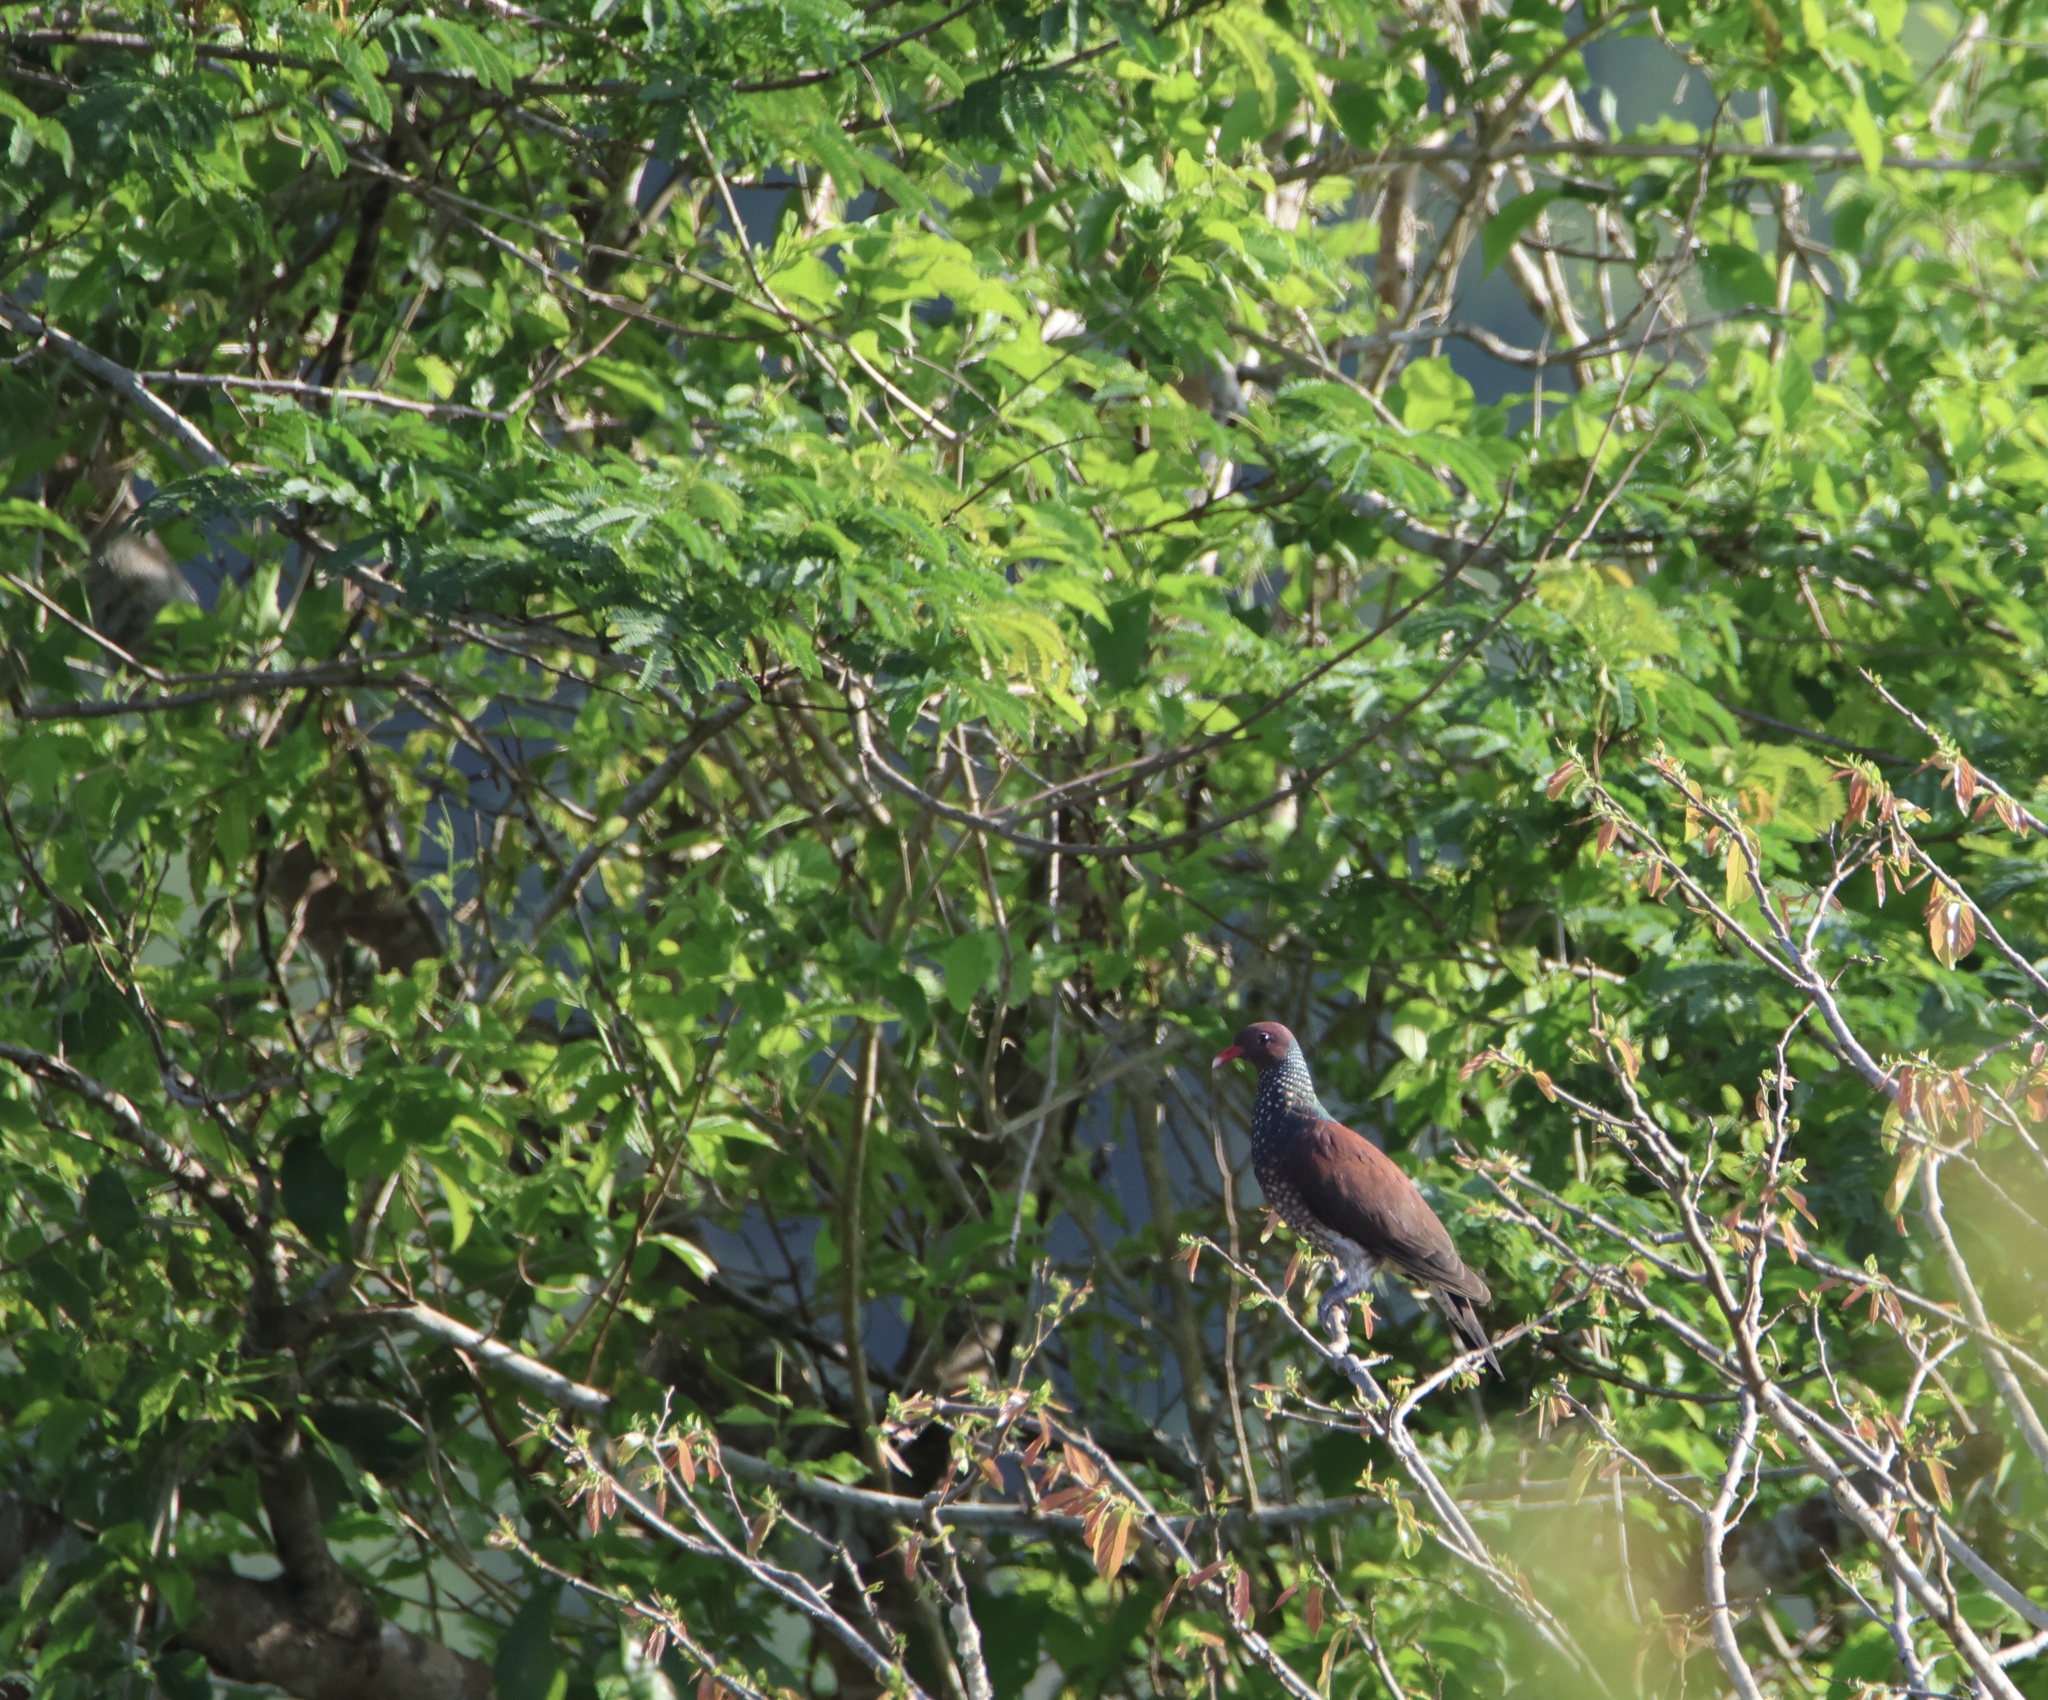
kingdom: Animalia
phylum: Chordata
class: Aves
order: Columbiformes
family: Columbidae
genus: Patagioenas
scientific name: Patagioenas speciosa
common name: Scaled pigeon
